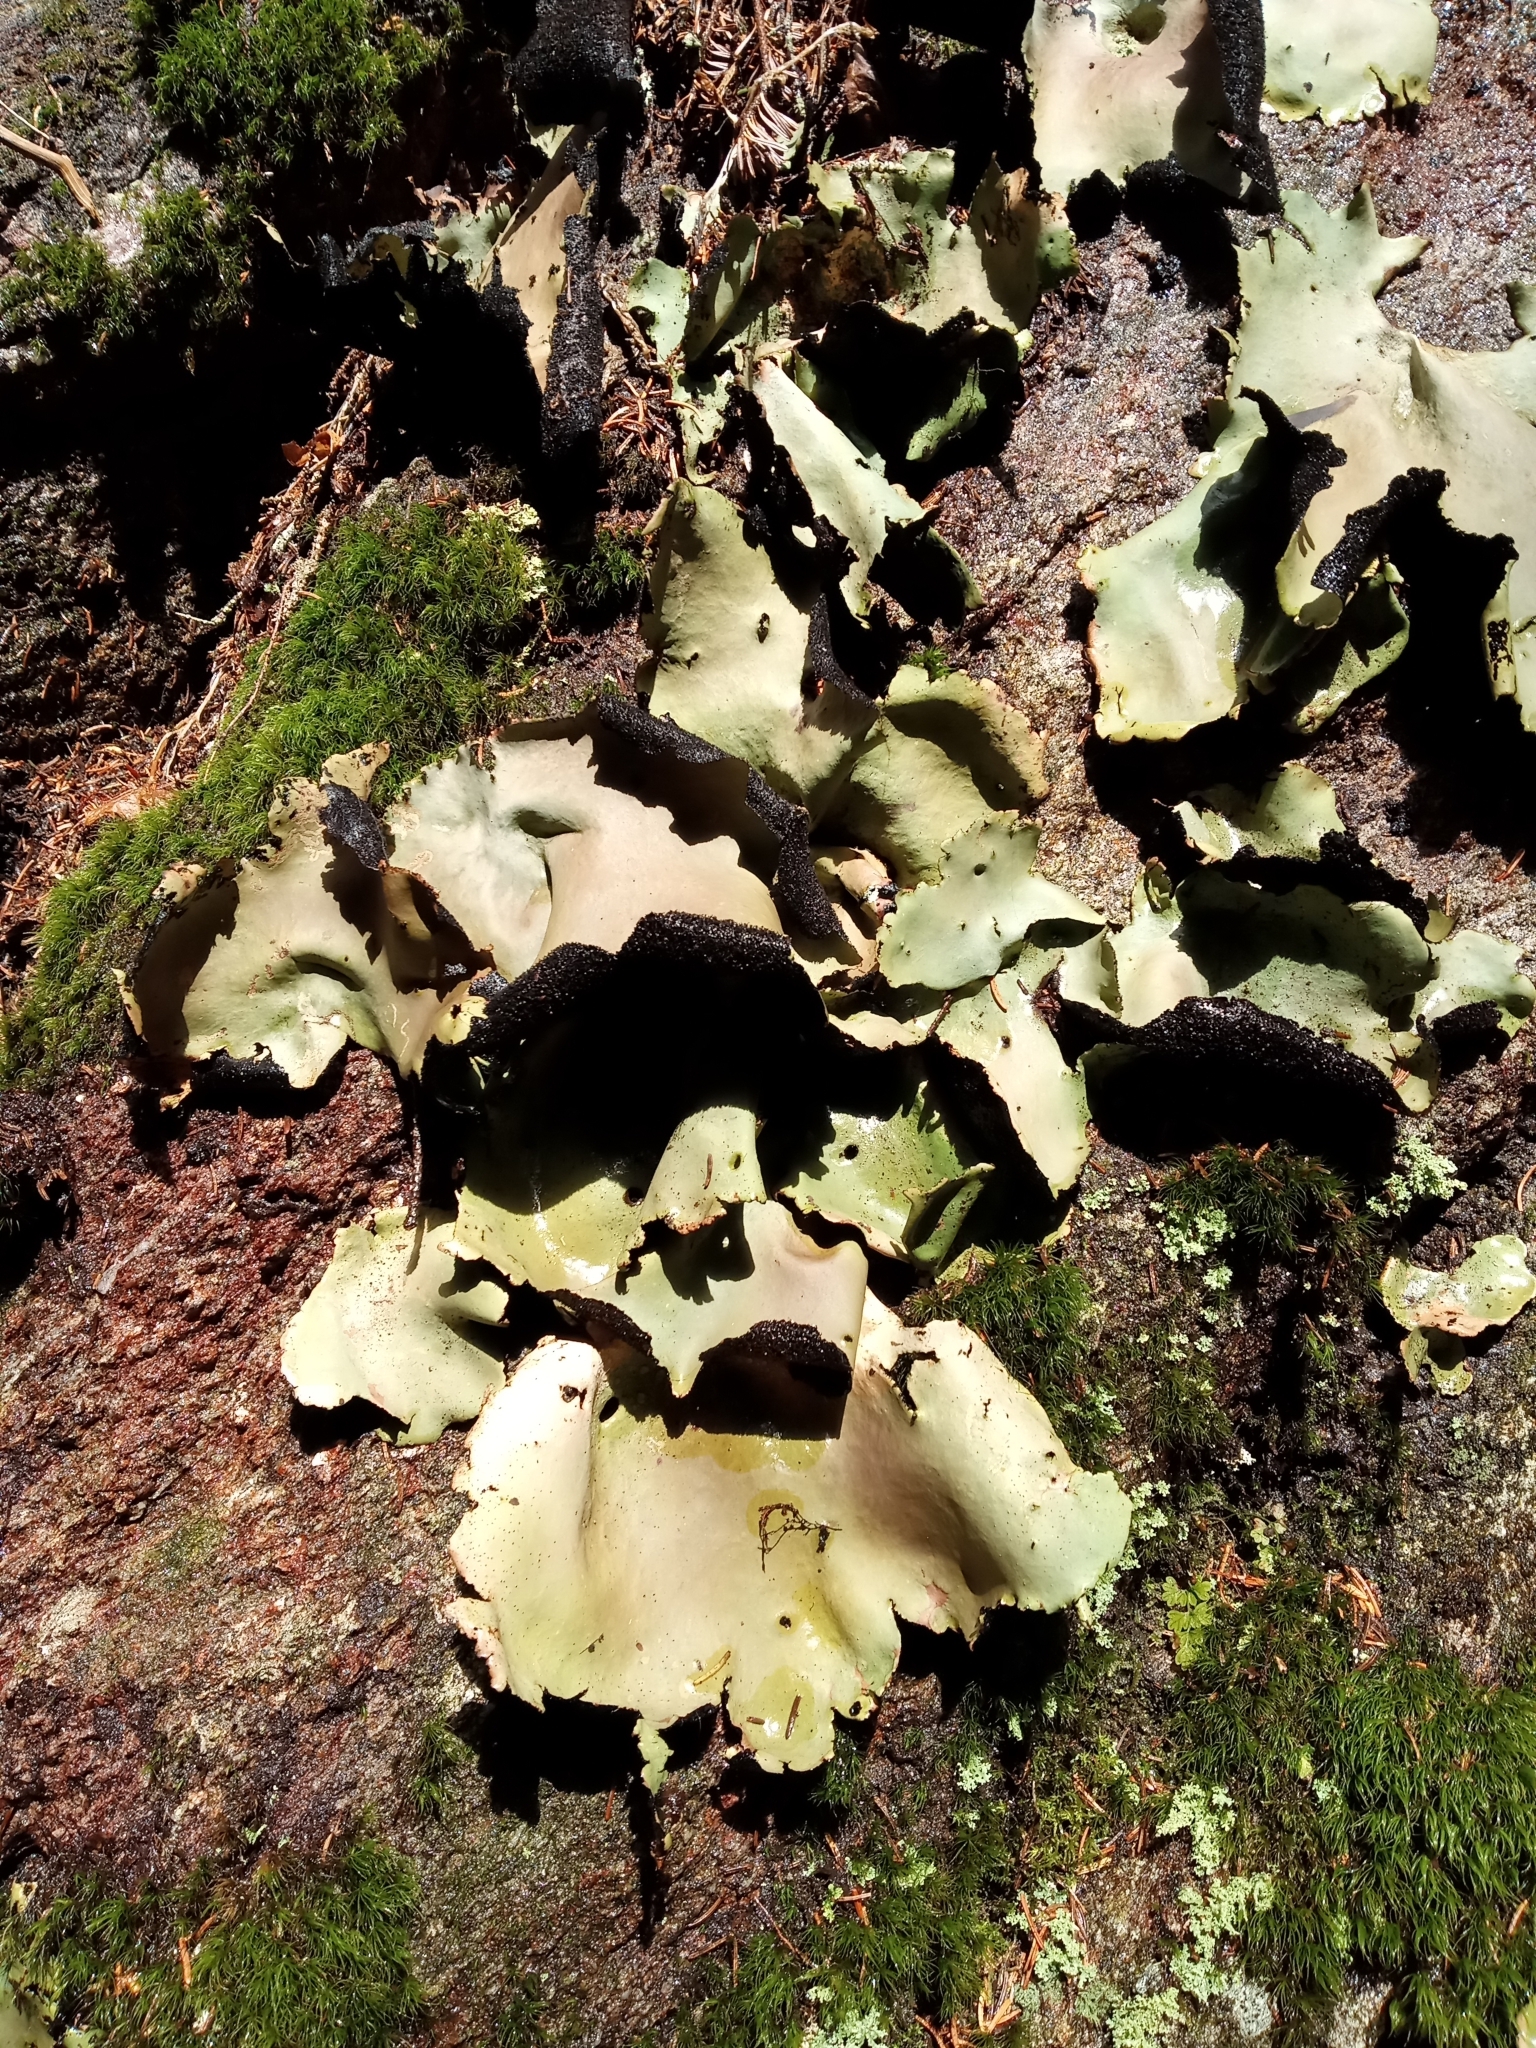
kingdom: Fungi
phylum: Ascomycota
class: Lecanoromycetes
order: Umbilicariales
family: Umbilicariaceae
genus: Umbilicaria
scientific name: Umbilicaria mammulata
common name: Smooth rock tripe
